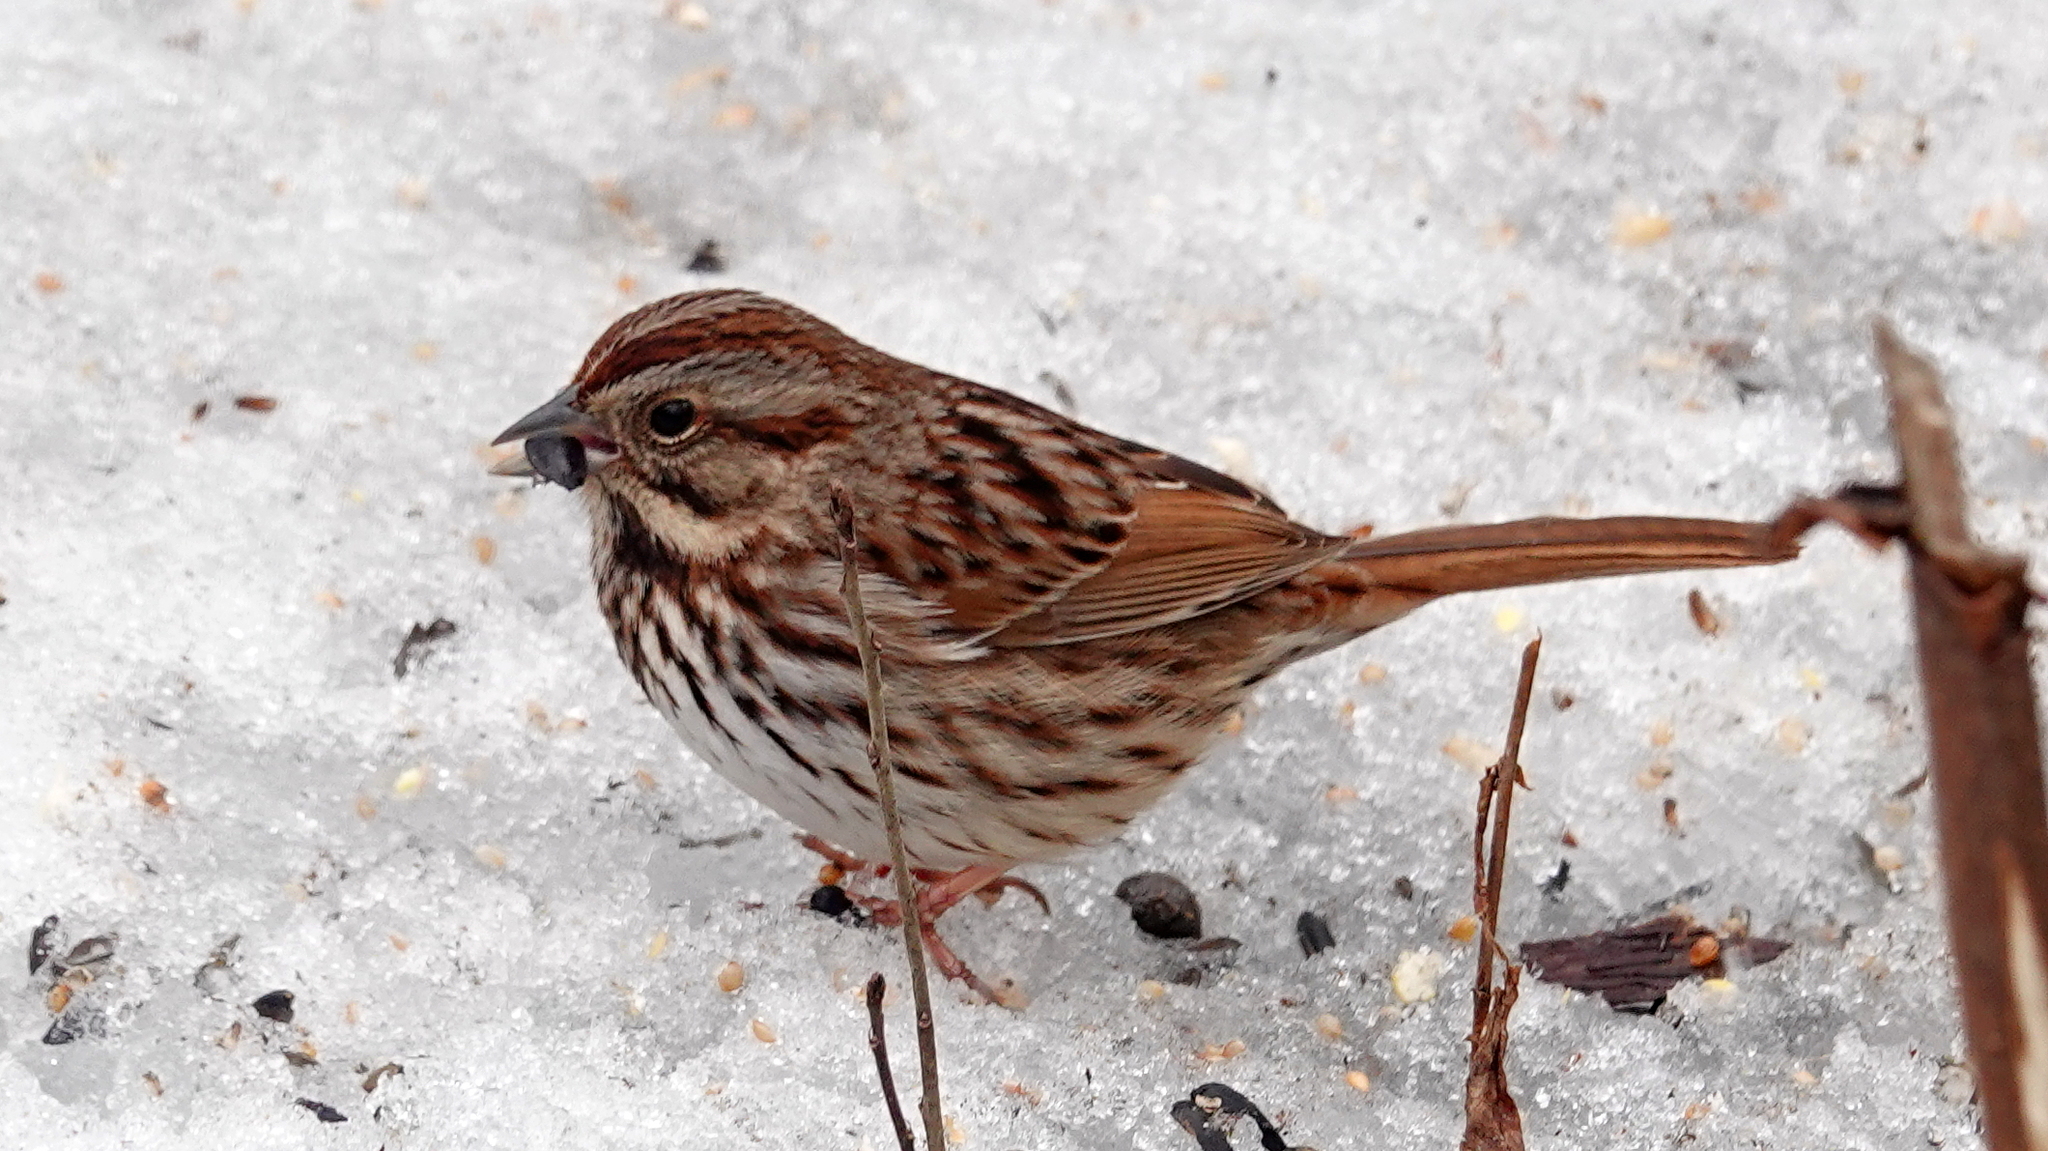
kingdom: Animalia
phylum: Chordata
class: Aves
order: Passeriformes
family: Passerellidae
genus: Melospiza
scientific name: Melospiza melodia
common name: Song sparrow
